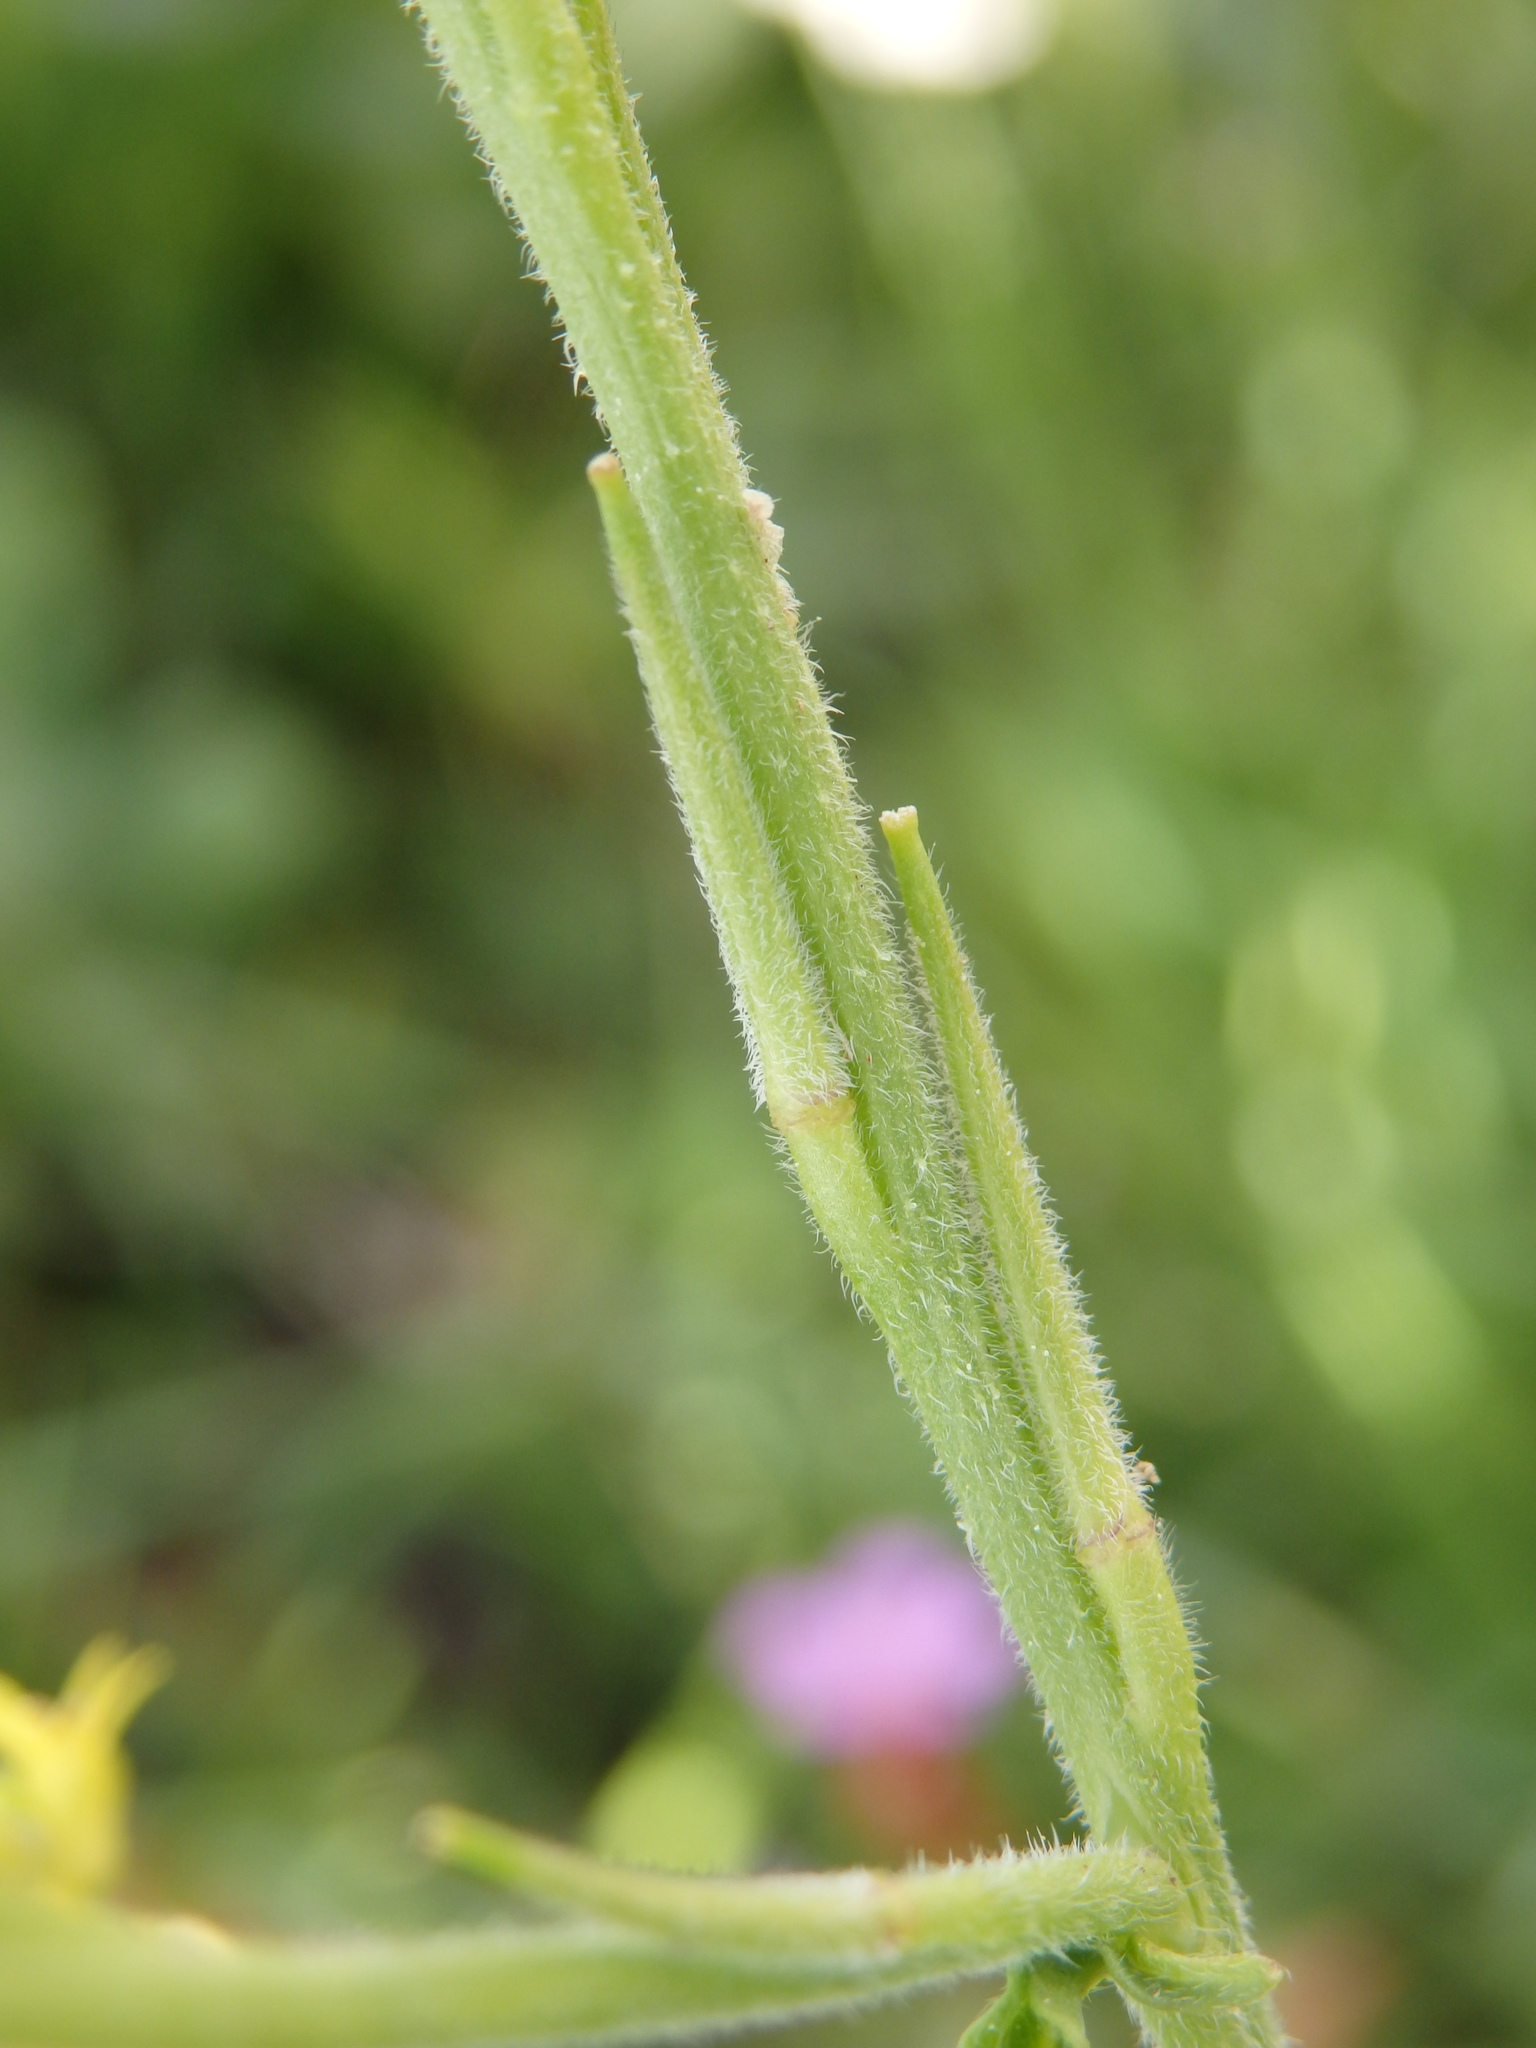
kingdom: Plantae
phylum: Tracheophyta
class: Magnoliopsida
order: Brassicales
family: Brassicaceae
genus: Sisymbrium
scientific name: Sisymbrium officinale
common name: Hedge mustard
